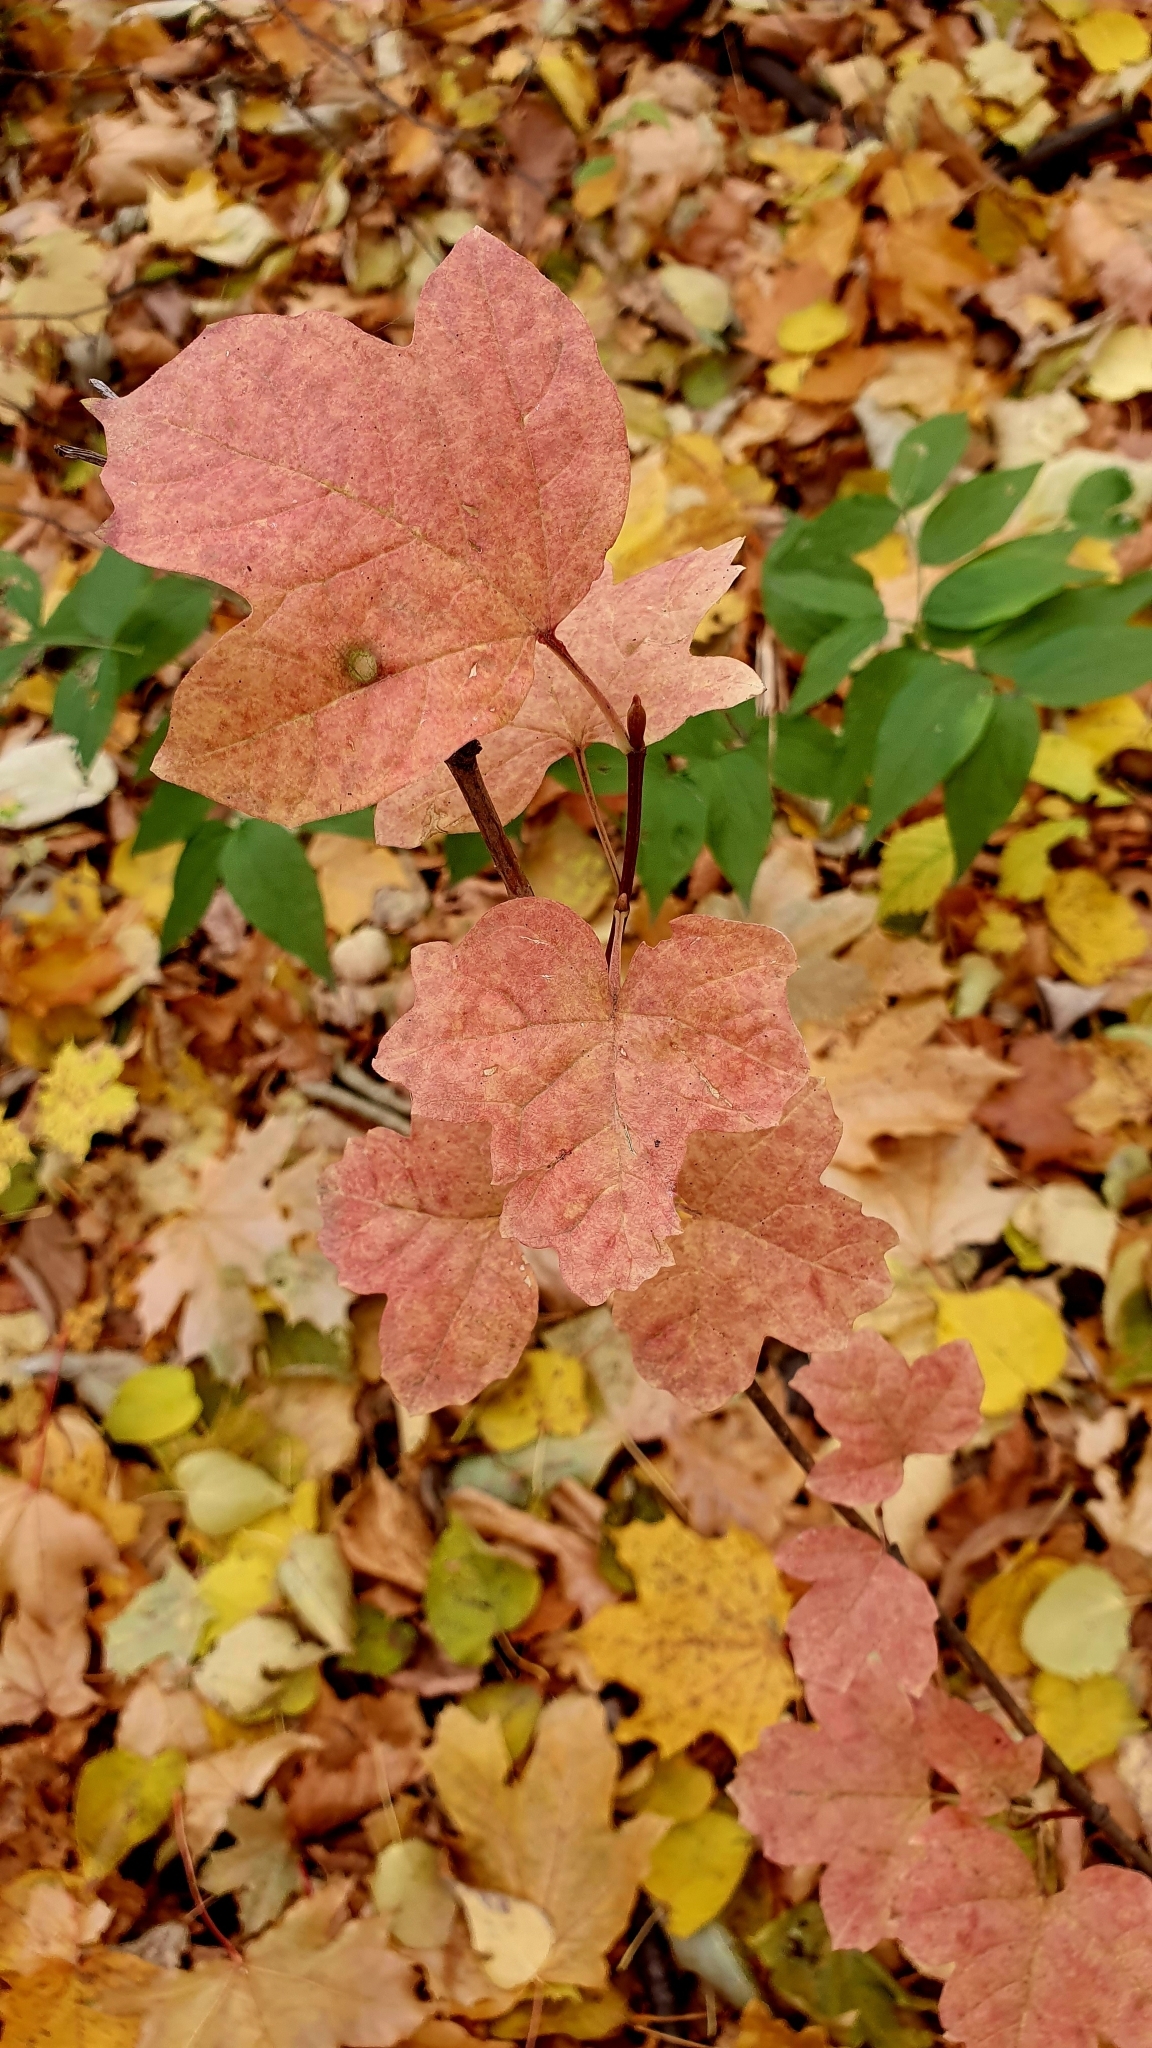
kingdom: Plantae
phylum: Tracheophyta
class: Magnoliopsida
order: Dipsacales
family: Viburnaceae
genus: Viburnum
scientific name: Viburnum opulus
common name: Guelder-rose
